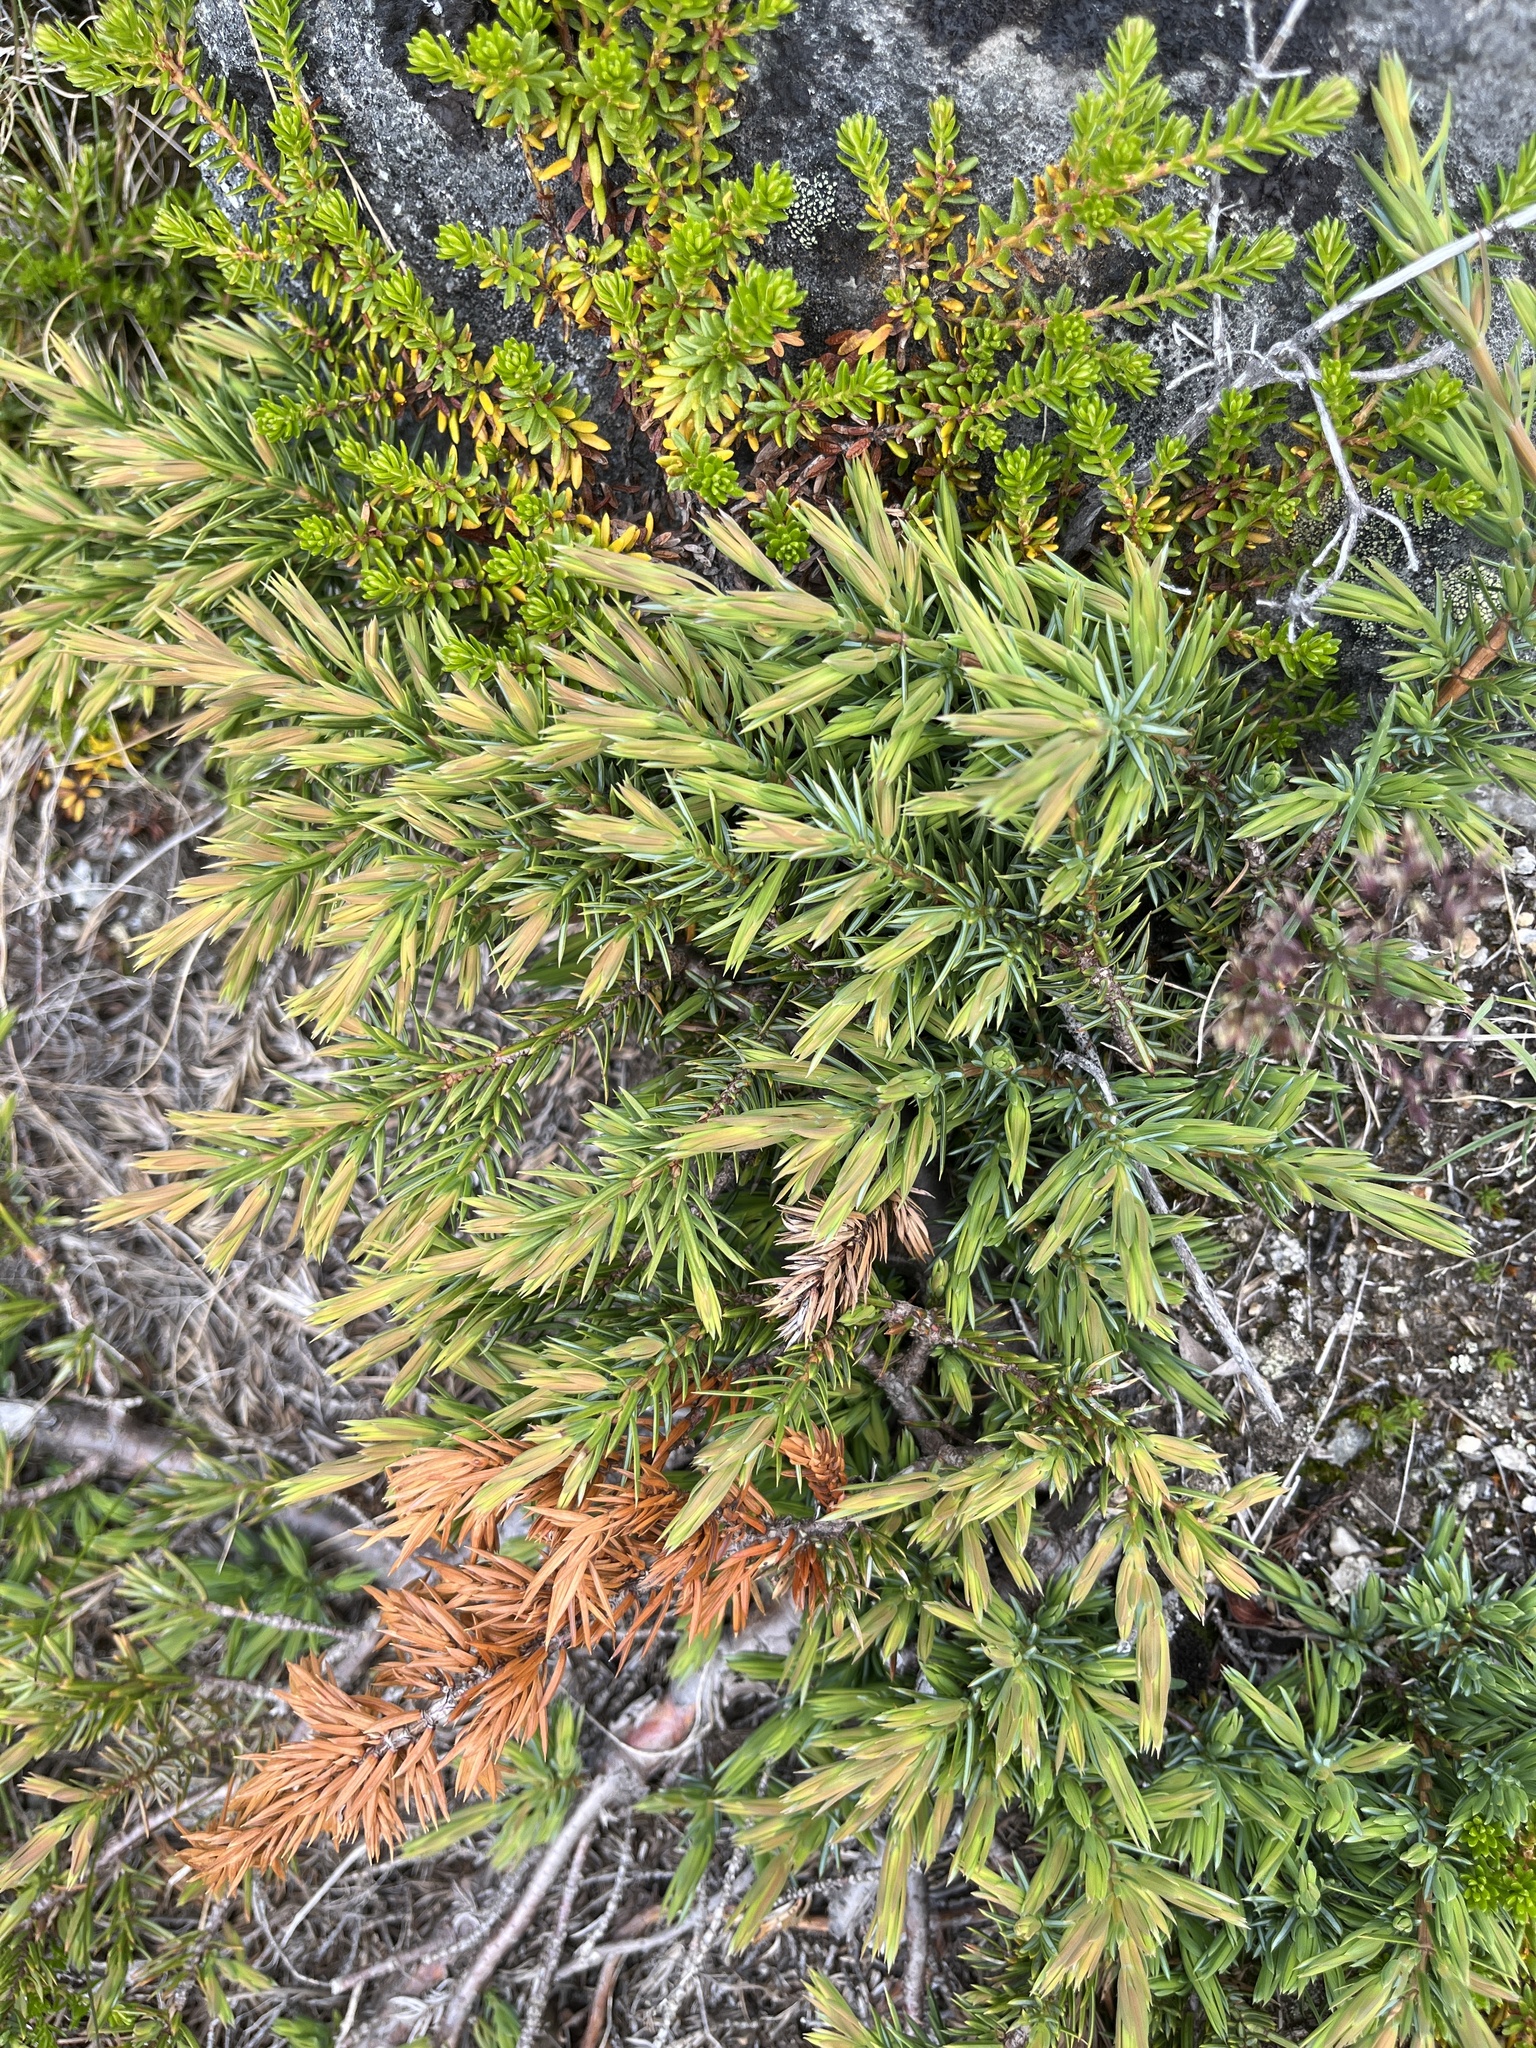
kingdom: Plantae
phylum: Tracheophyta
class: Pinopsida
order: Pinales
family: Cupressaceae
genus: Juniperus
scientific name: Juniperus communis
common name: Common juniper
